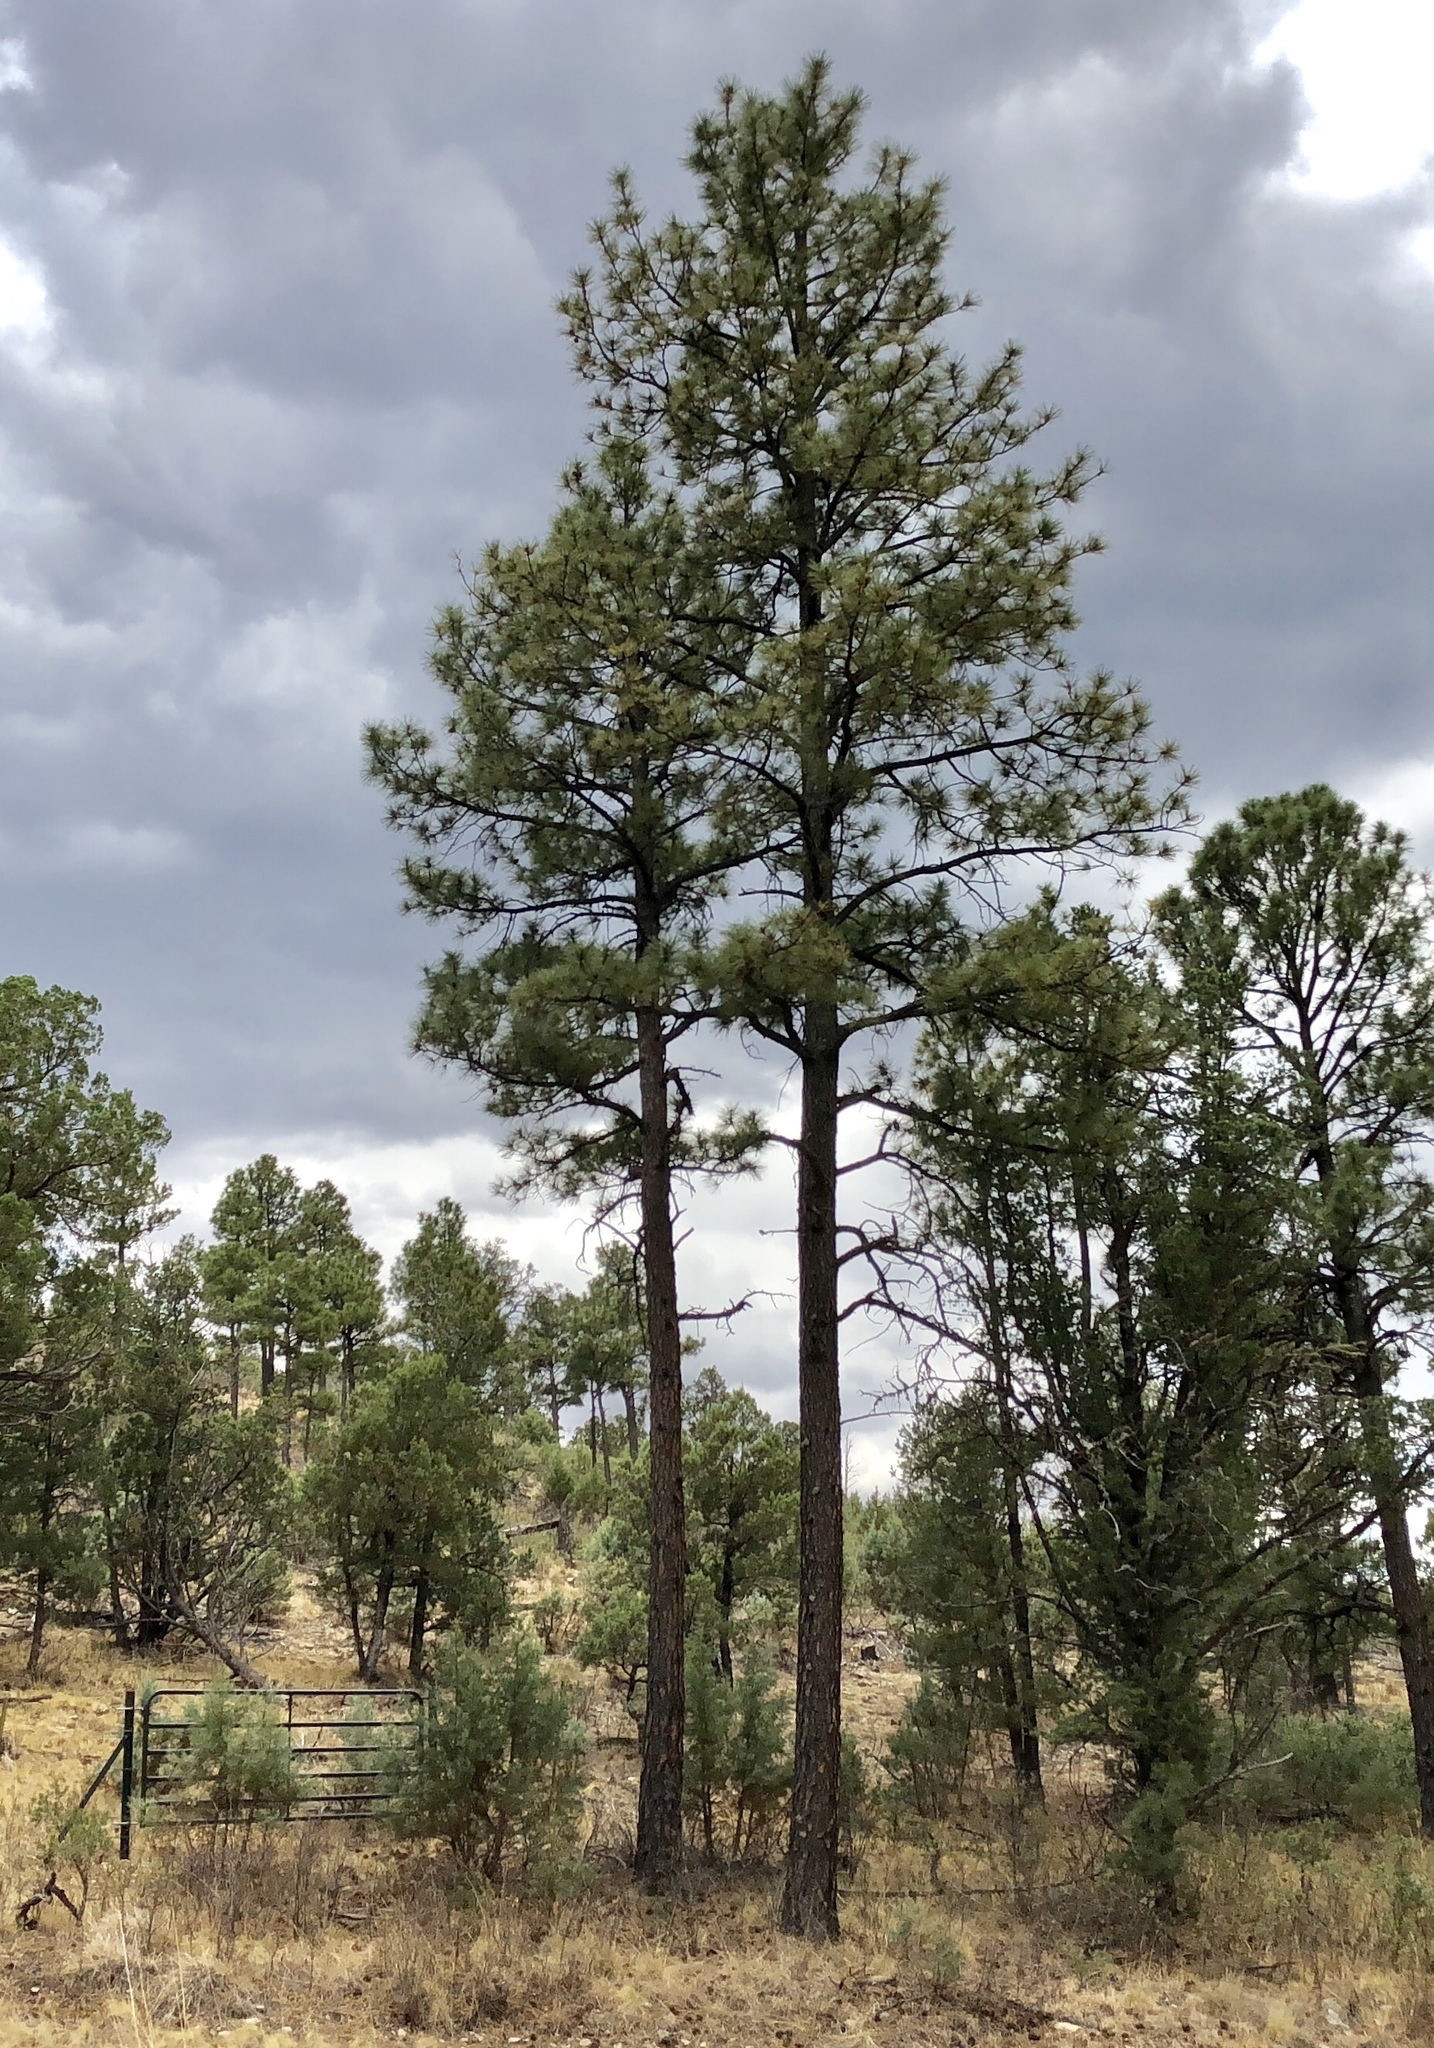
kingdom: Plantae
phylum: Tracheophyta
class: Pinopsida
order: Pinales
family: Pinaceae
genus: Pinus
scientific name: Pinus ponderosa
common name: Western yellow-pine
